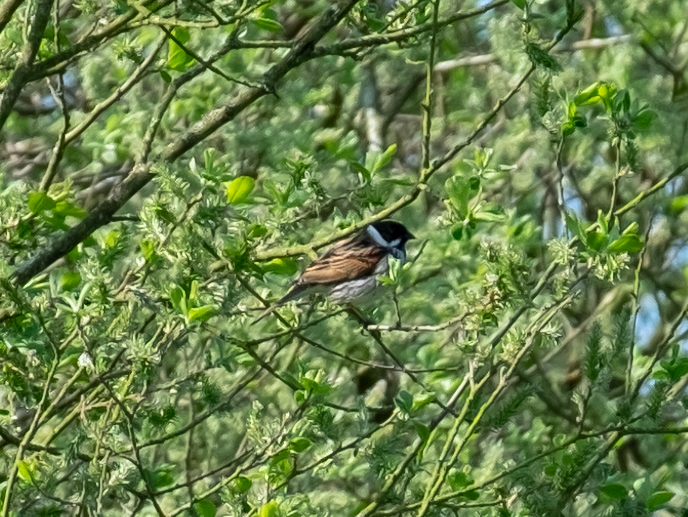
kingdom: Animalia
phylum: Chordata
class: Aves
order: Passeriformes
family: Emberizidae
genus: Emberiza
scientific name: Emberiza schoeniclus
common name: Reed bunting
